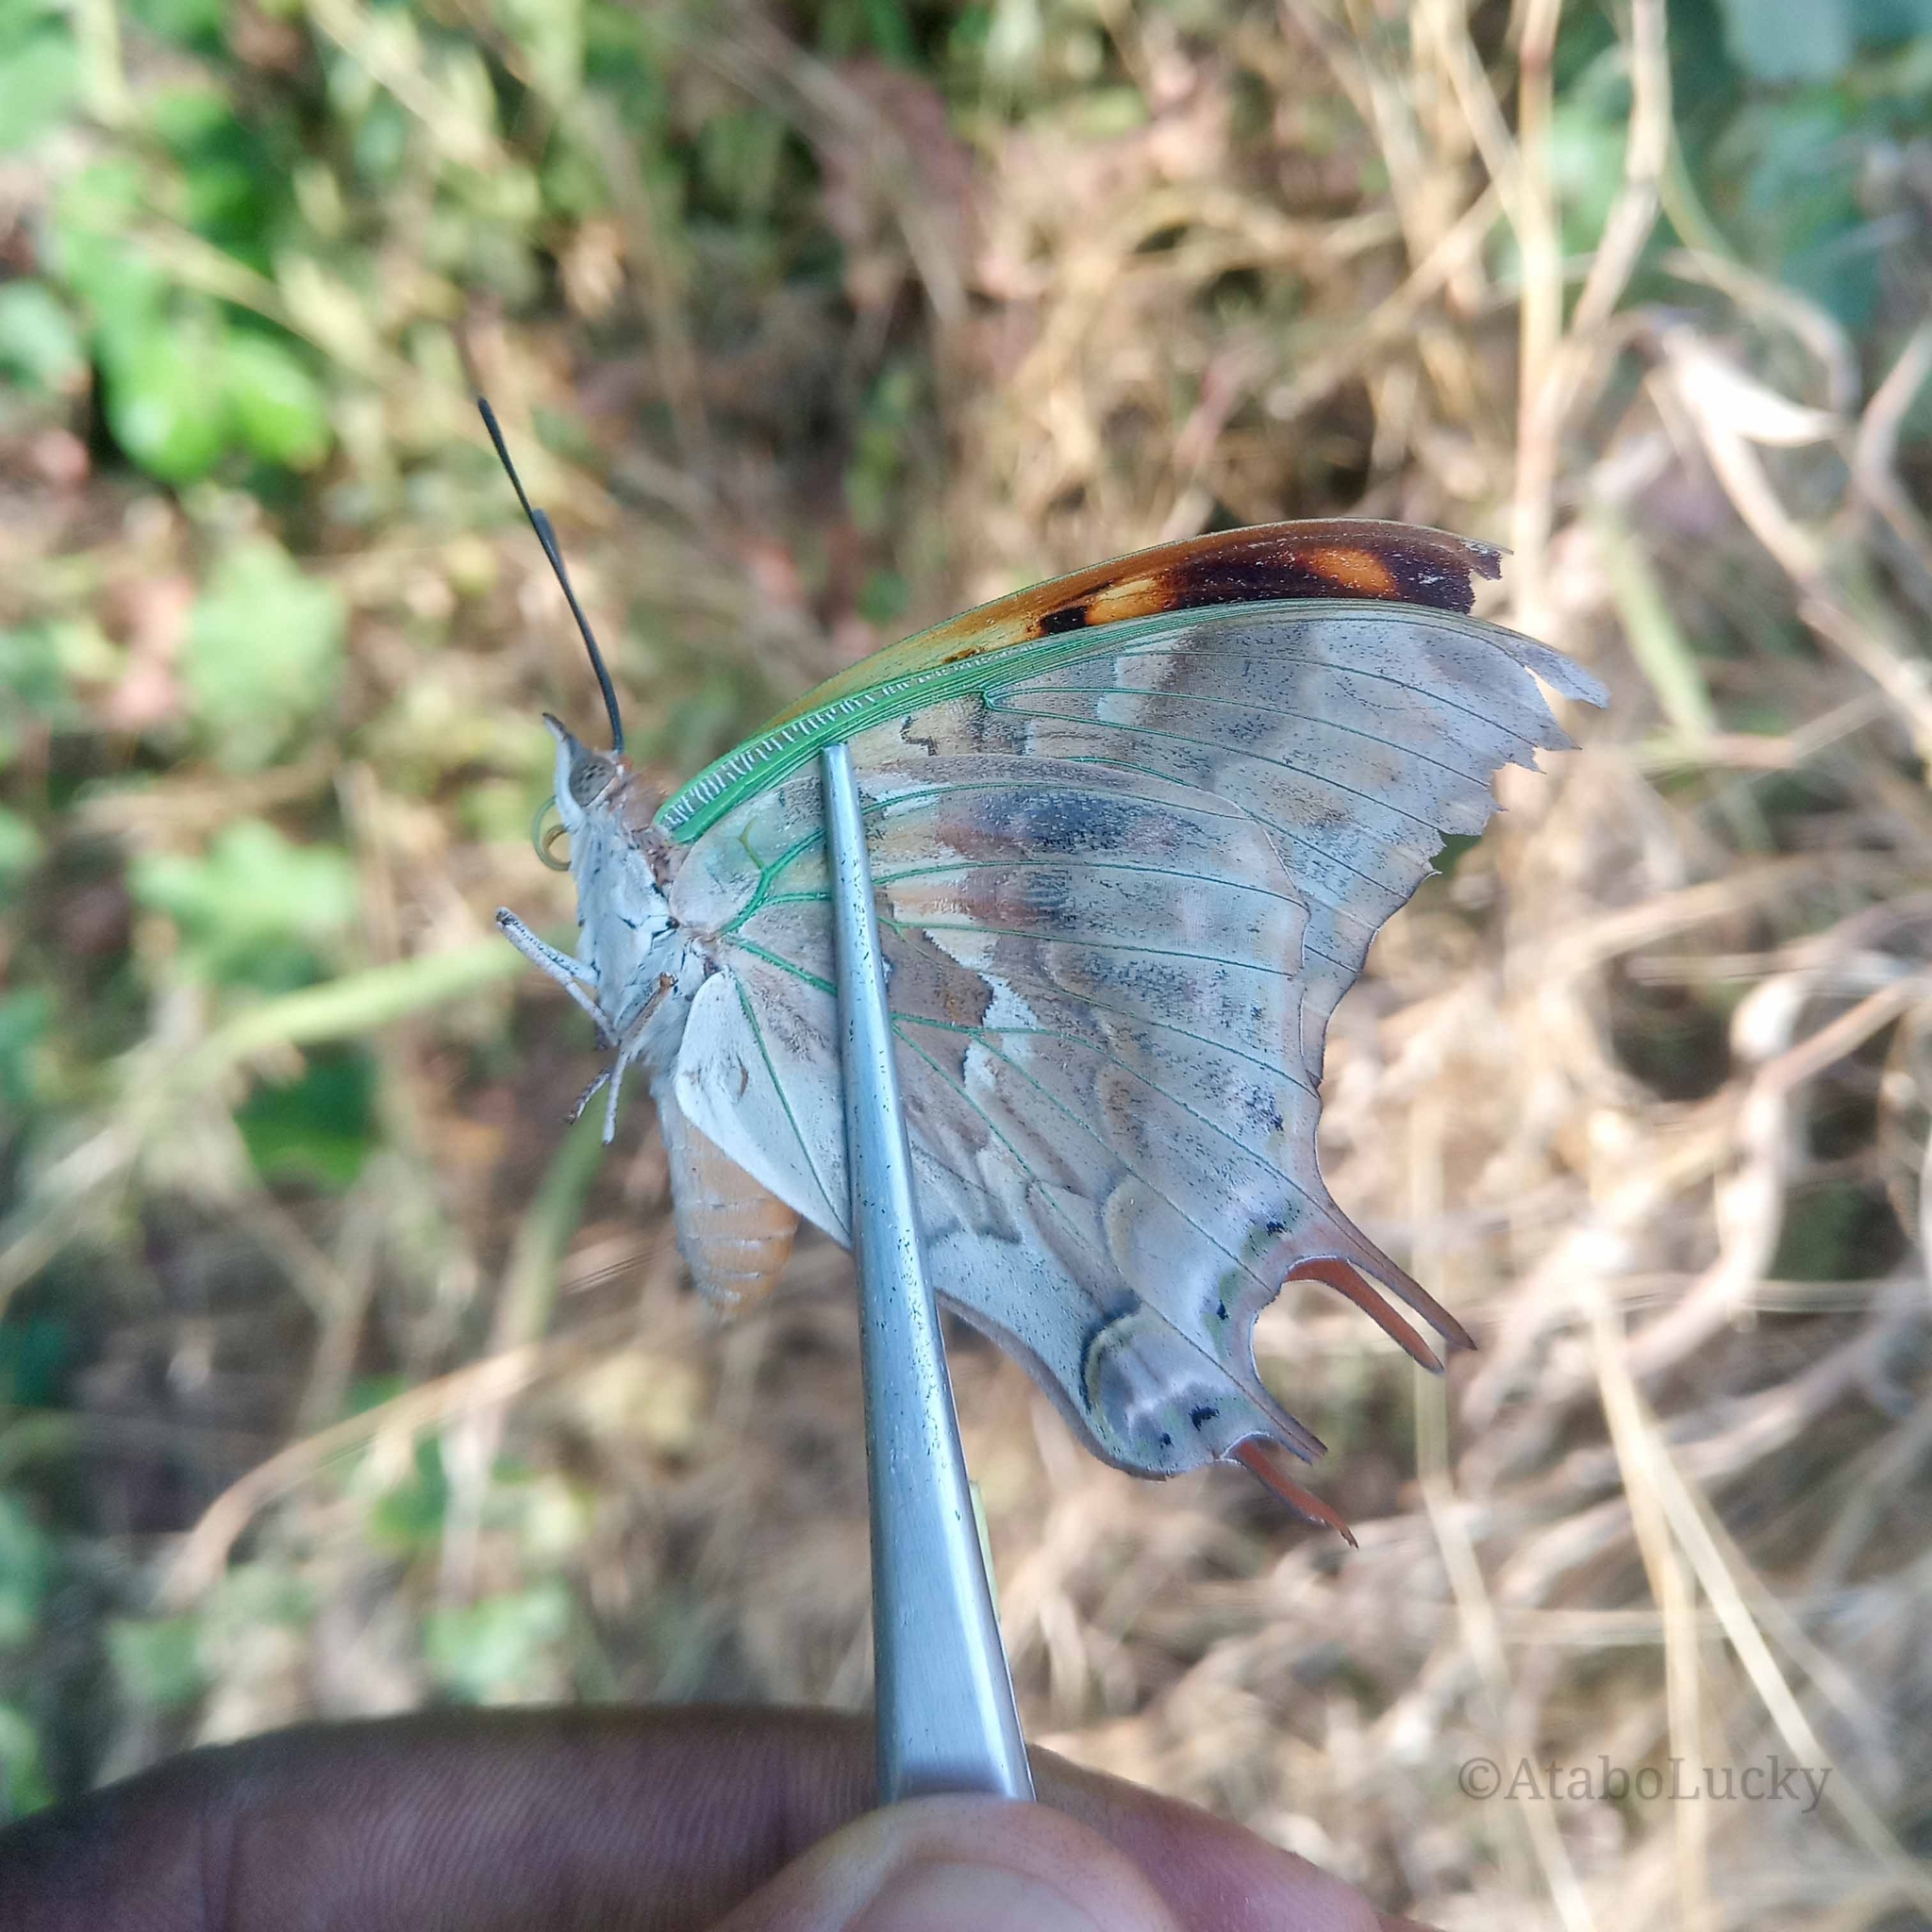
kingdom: Animalia
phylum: Arthropoda
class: Insecta
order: Lepidoptera
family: Nymphalidae
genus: Charaxes
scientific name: Charaxes candiope
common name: Green-veined charaxes
